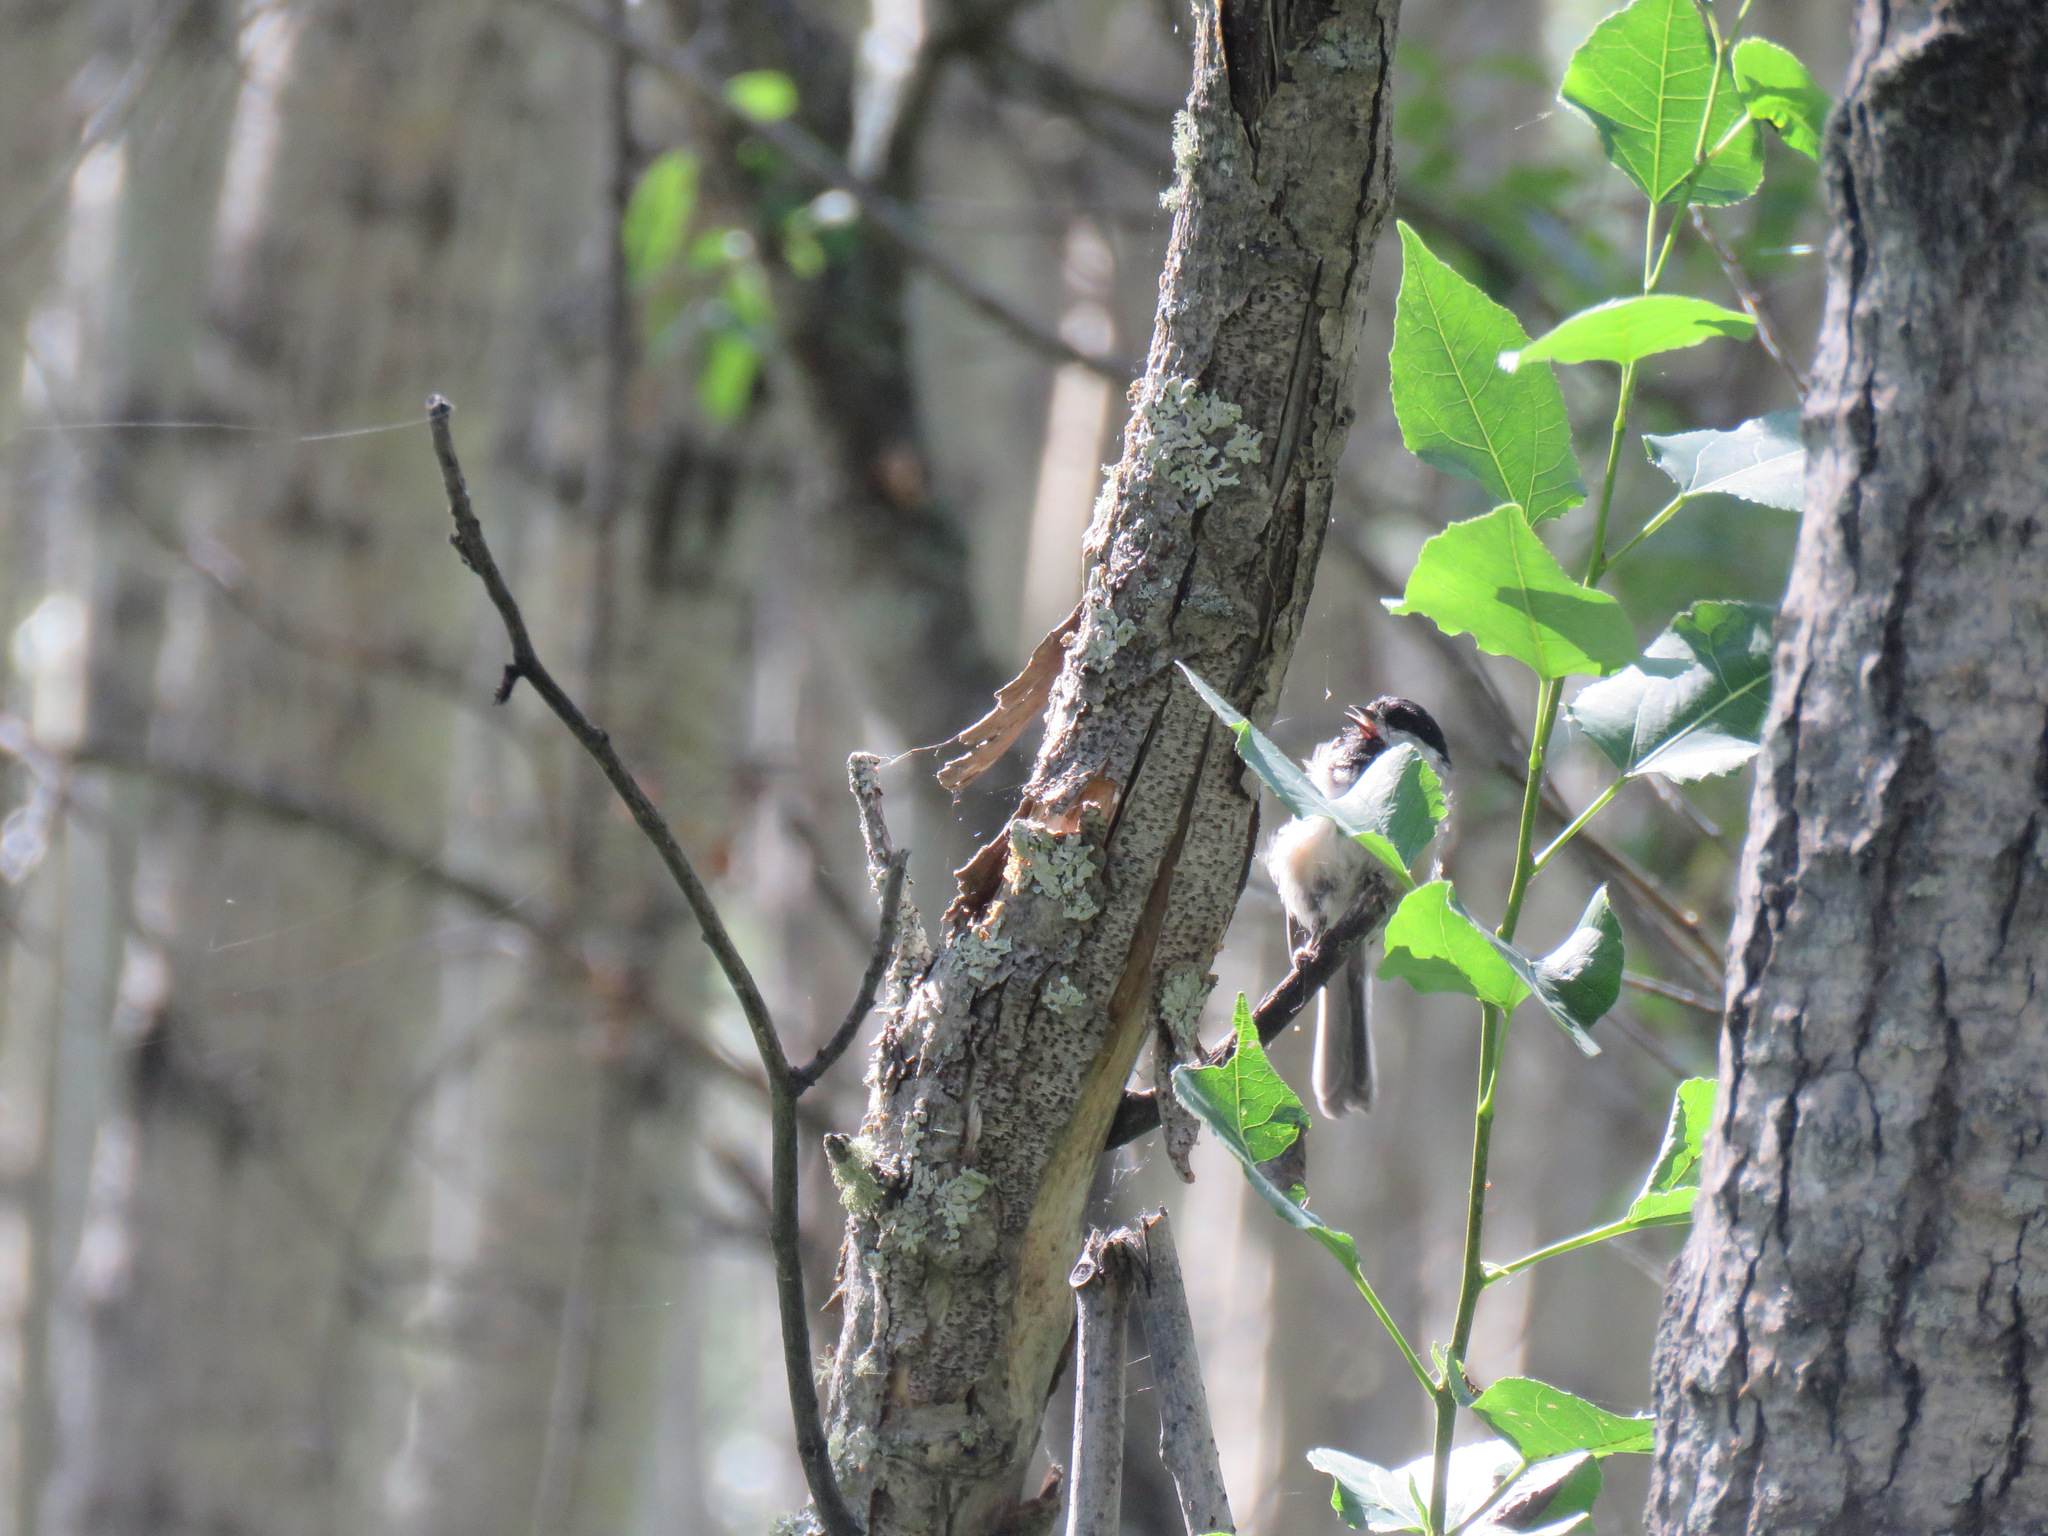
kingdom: Animalia
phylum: Chordata
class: Aves
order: Passeriformes
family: Paridae
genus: Poecile
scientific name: Poecile atricapillus
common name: Black-capped chickadee
